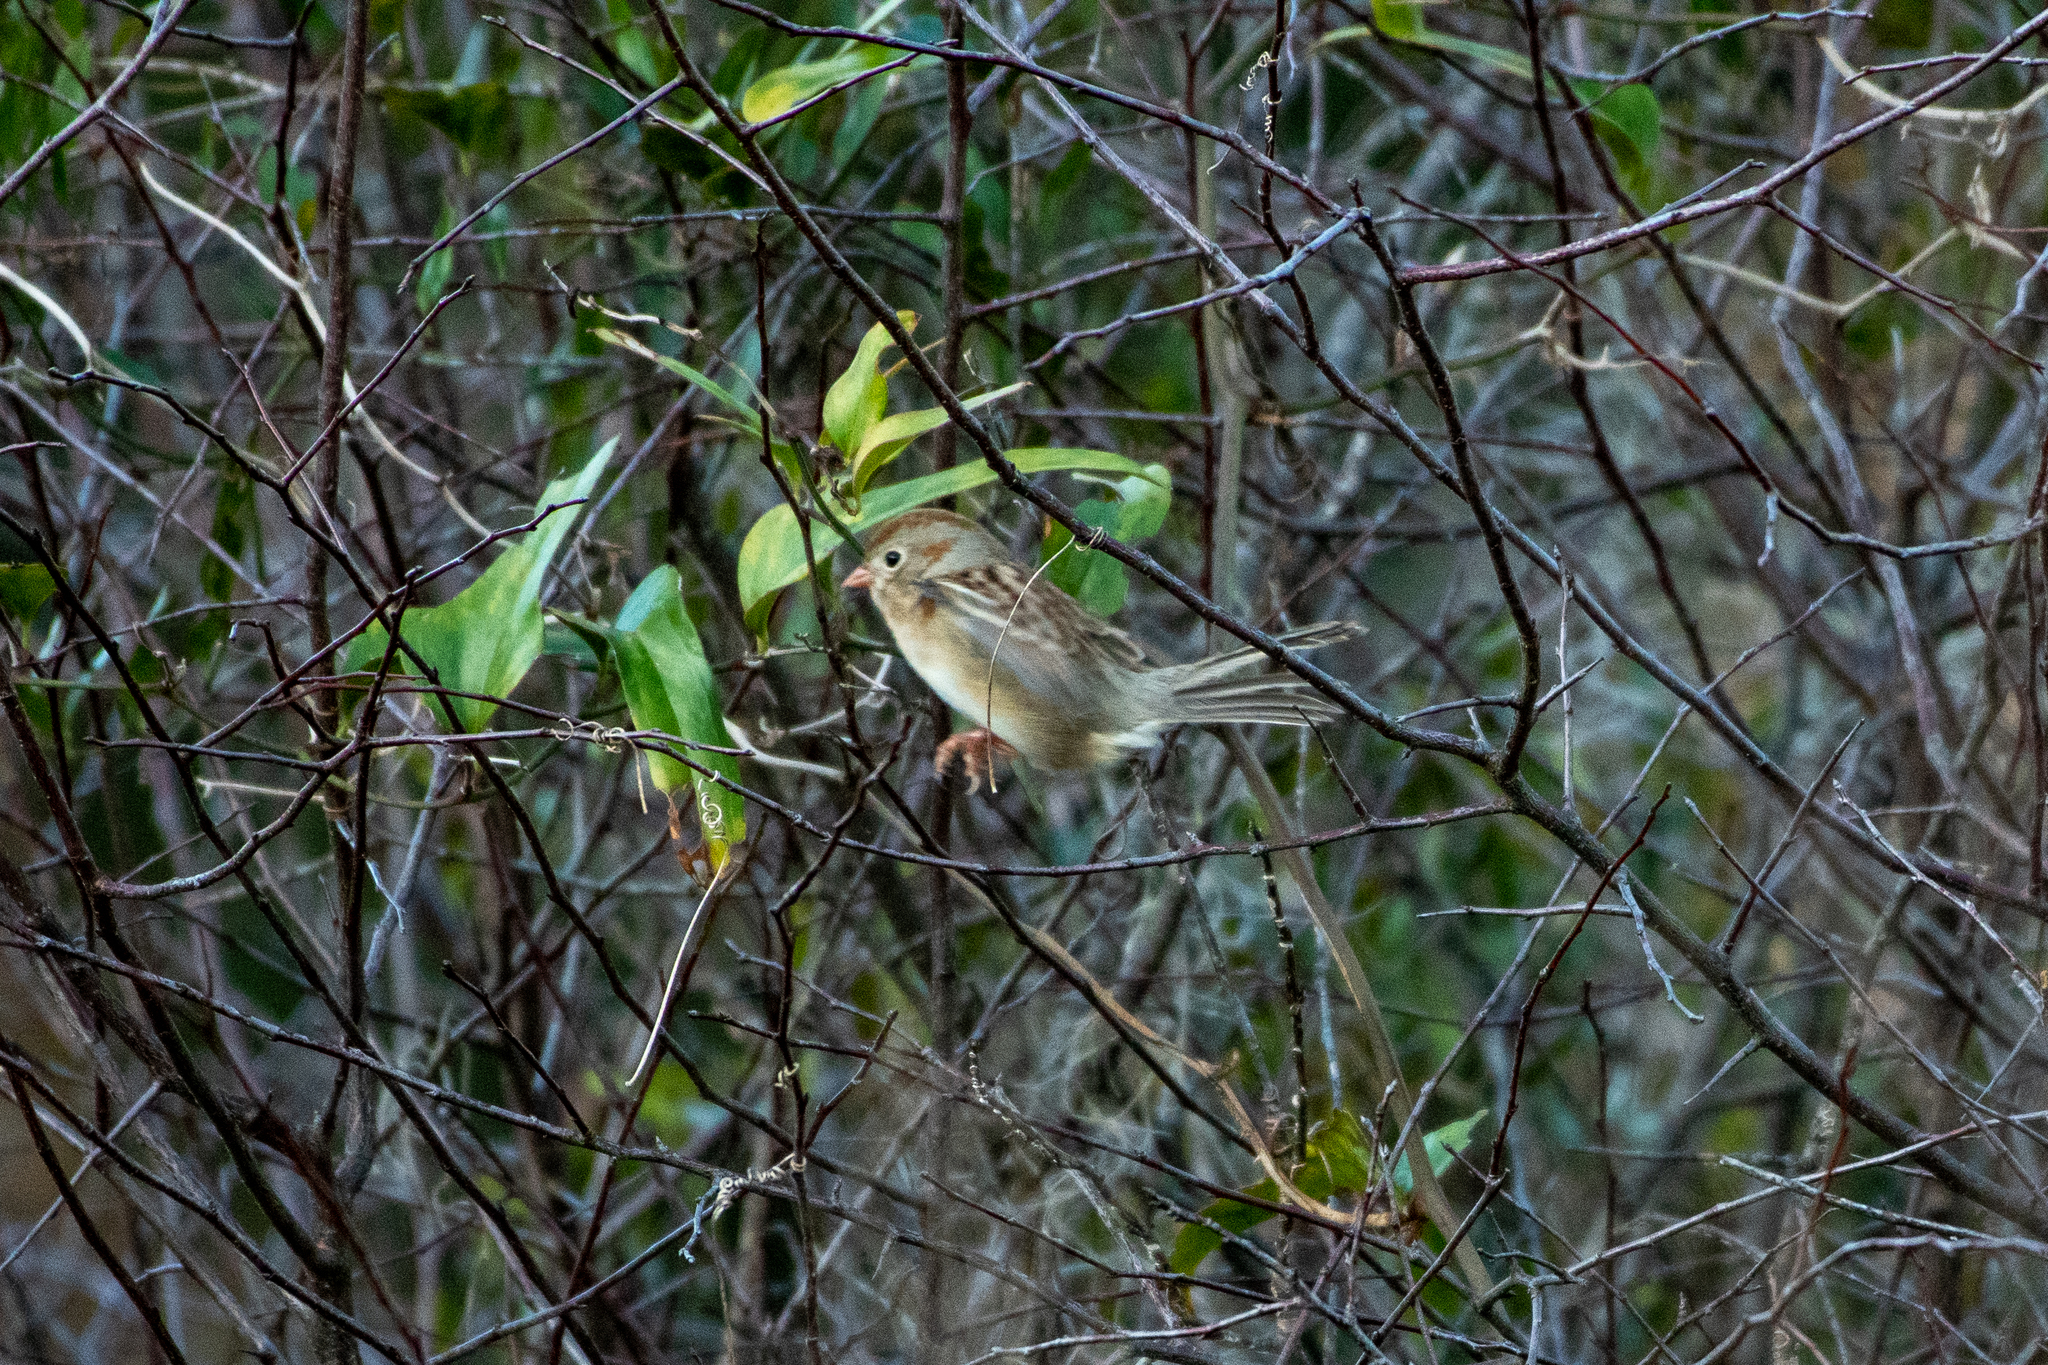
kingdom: Animalia
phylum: Chordata
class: Aves
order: Passeriformes
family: Passerellidae
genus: Spizella
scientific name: Spizella pusilla
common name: Field sparrow
